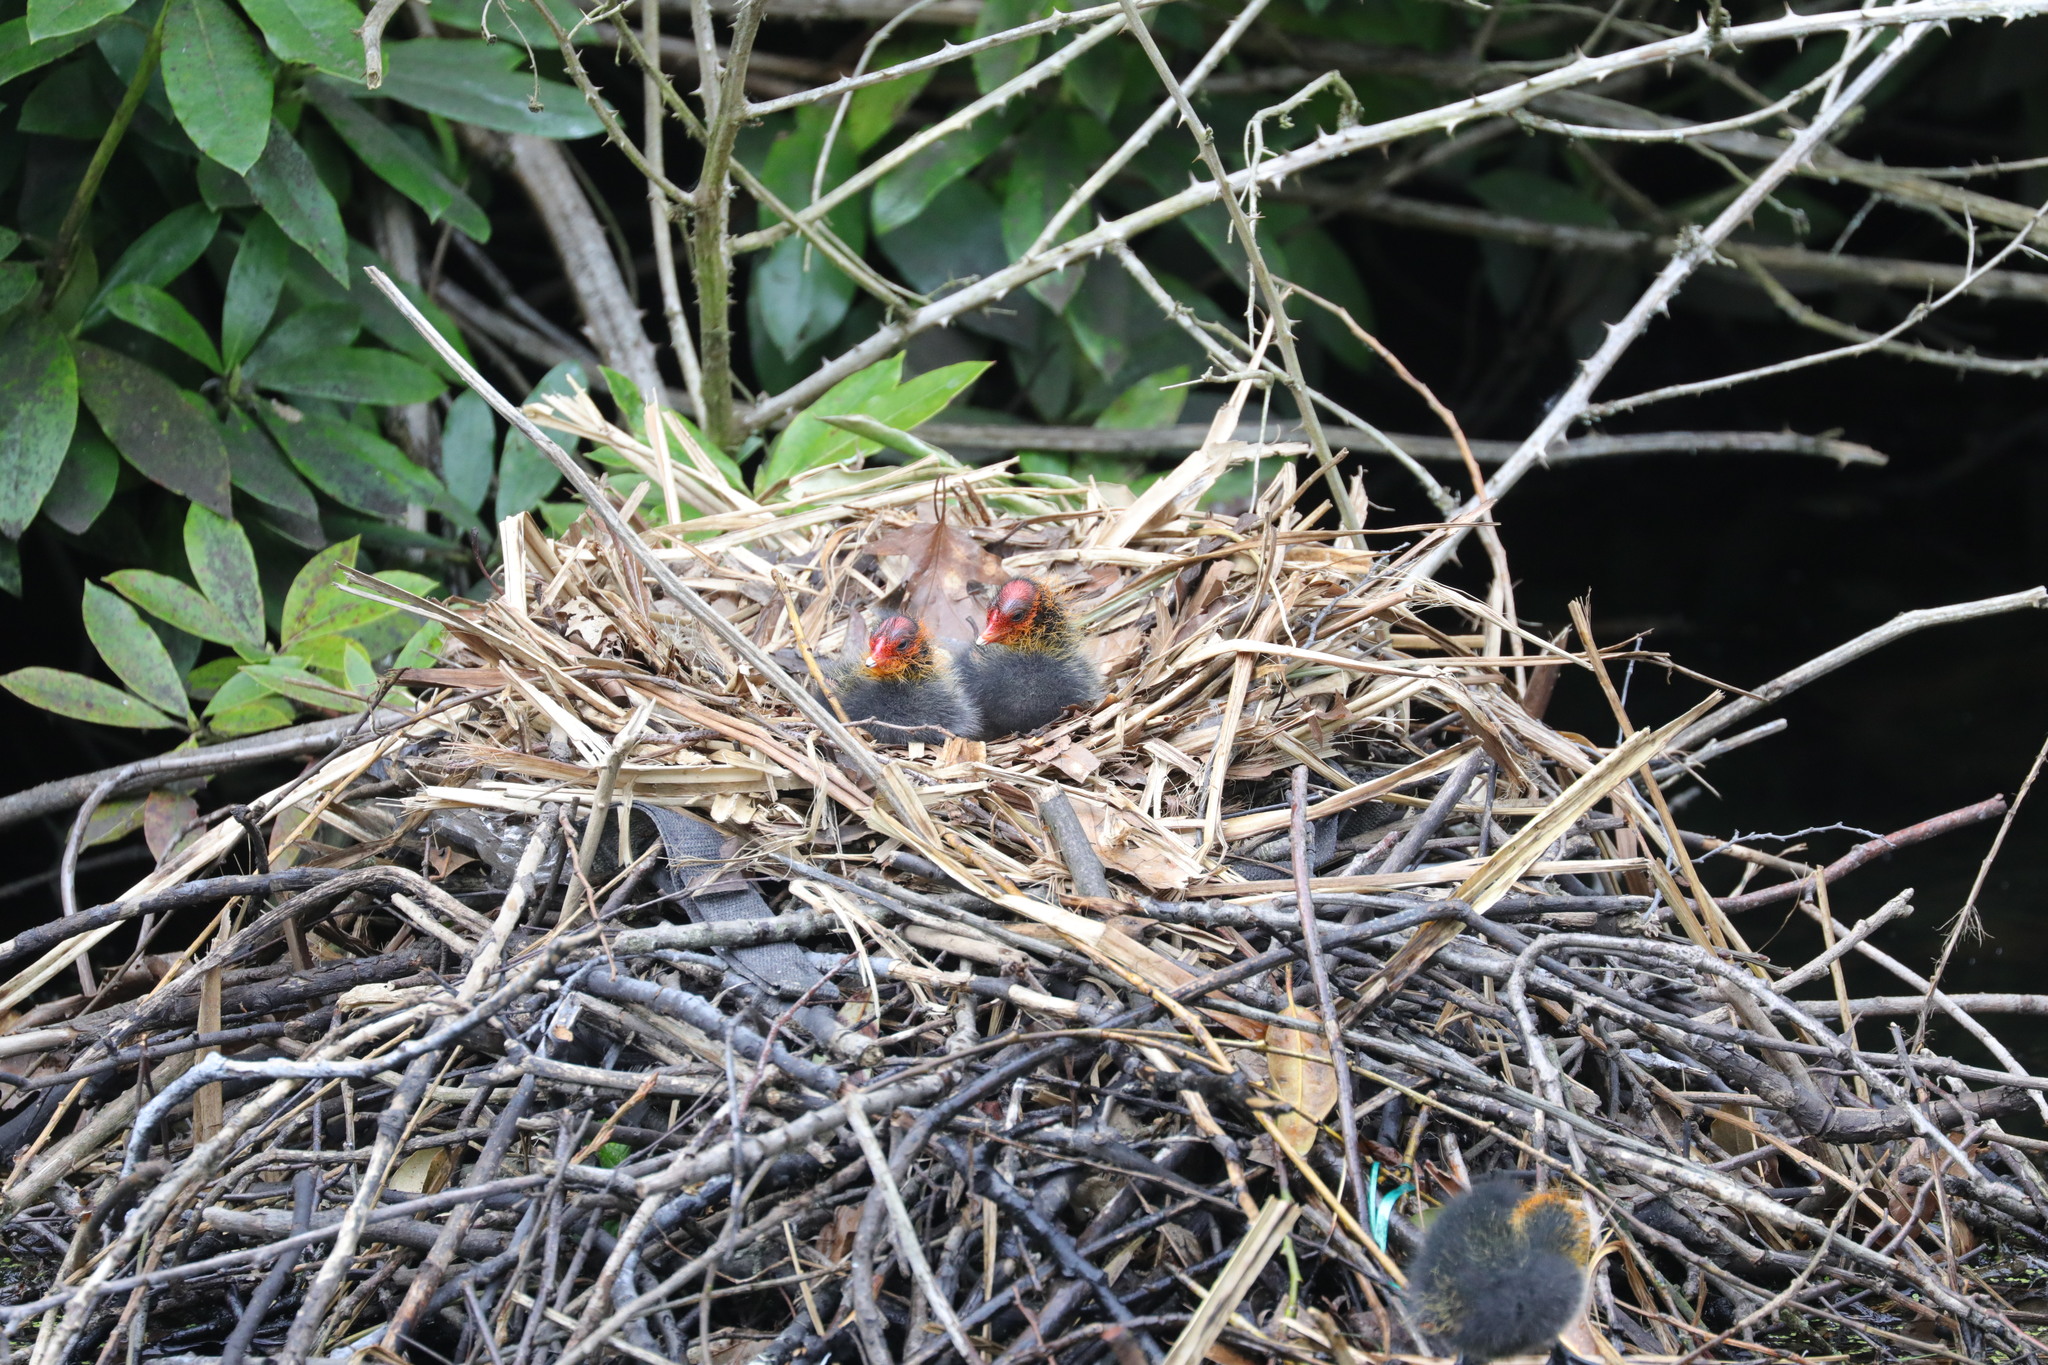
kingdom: Animalia
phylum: Chordata
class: Aves
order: Gruiformes
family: Rallidae
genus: Fulica
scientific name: Fulica atra
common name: Eurasian coot
